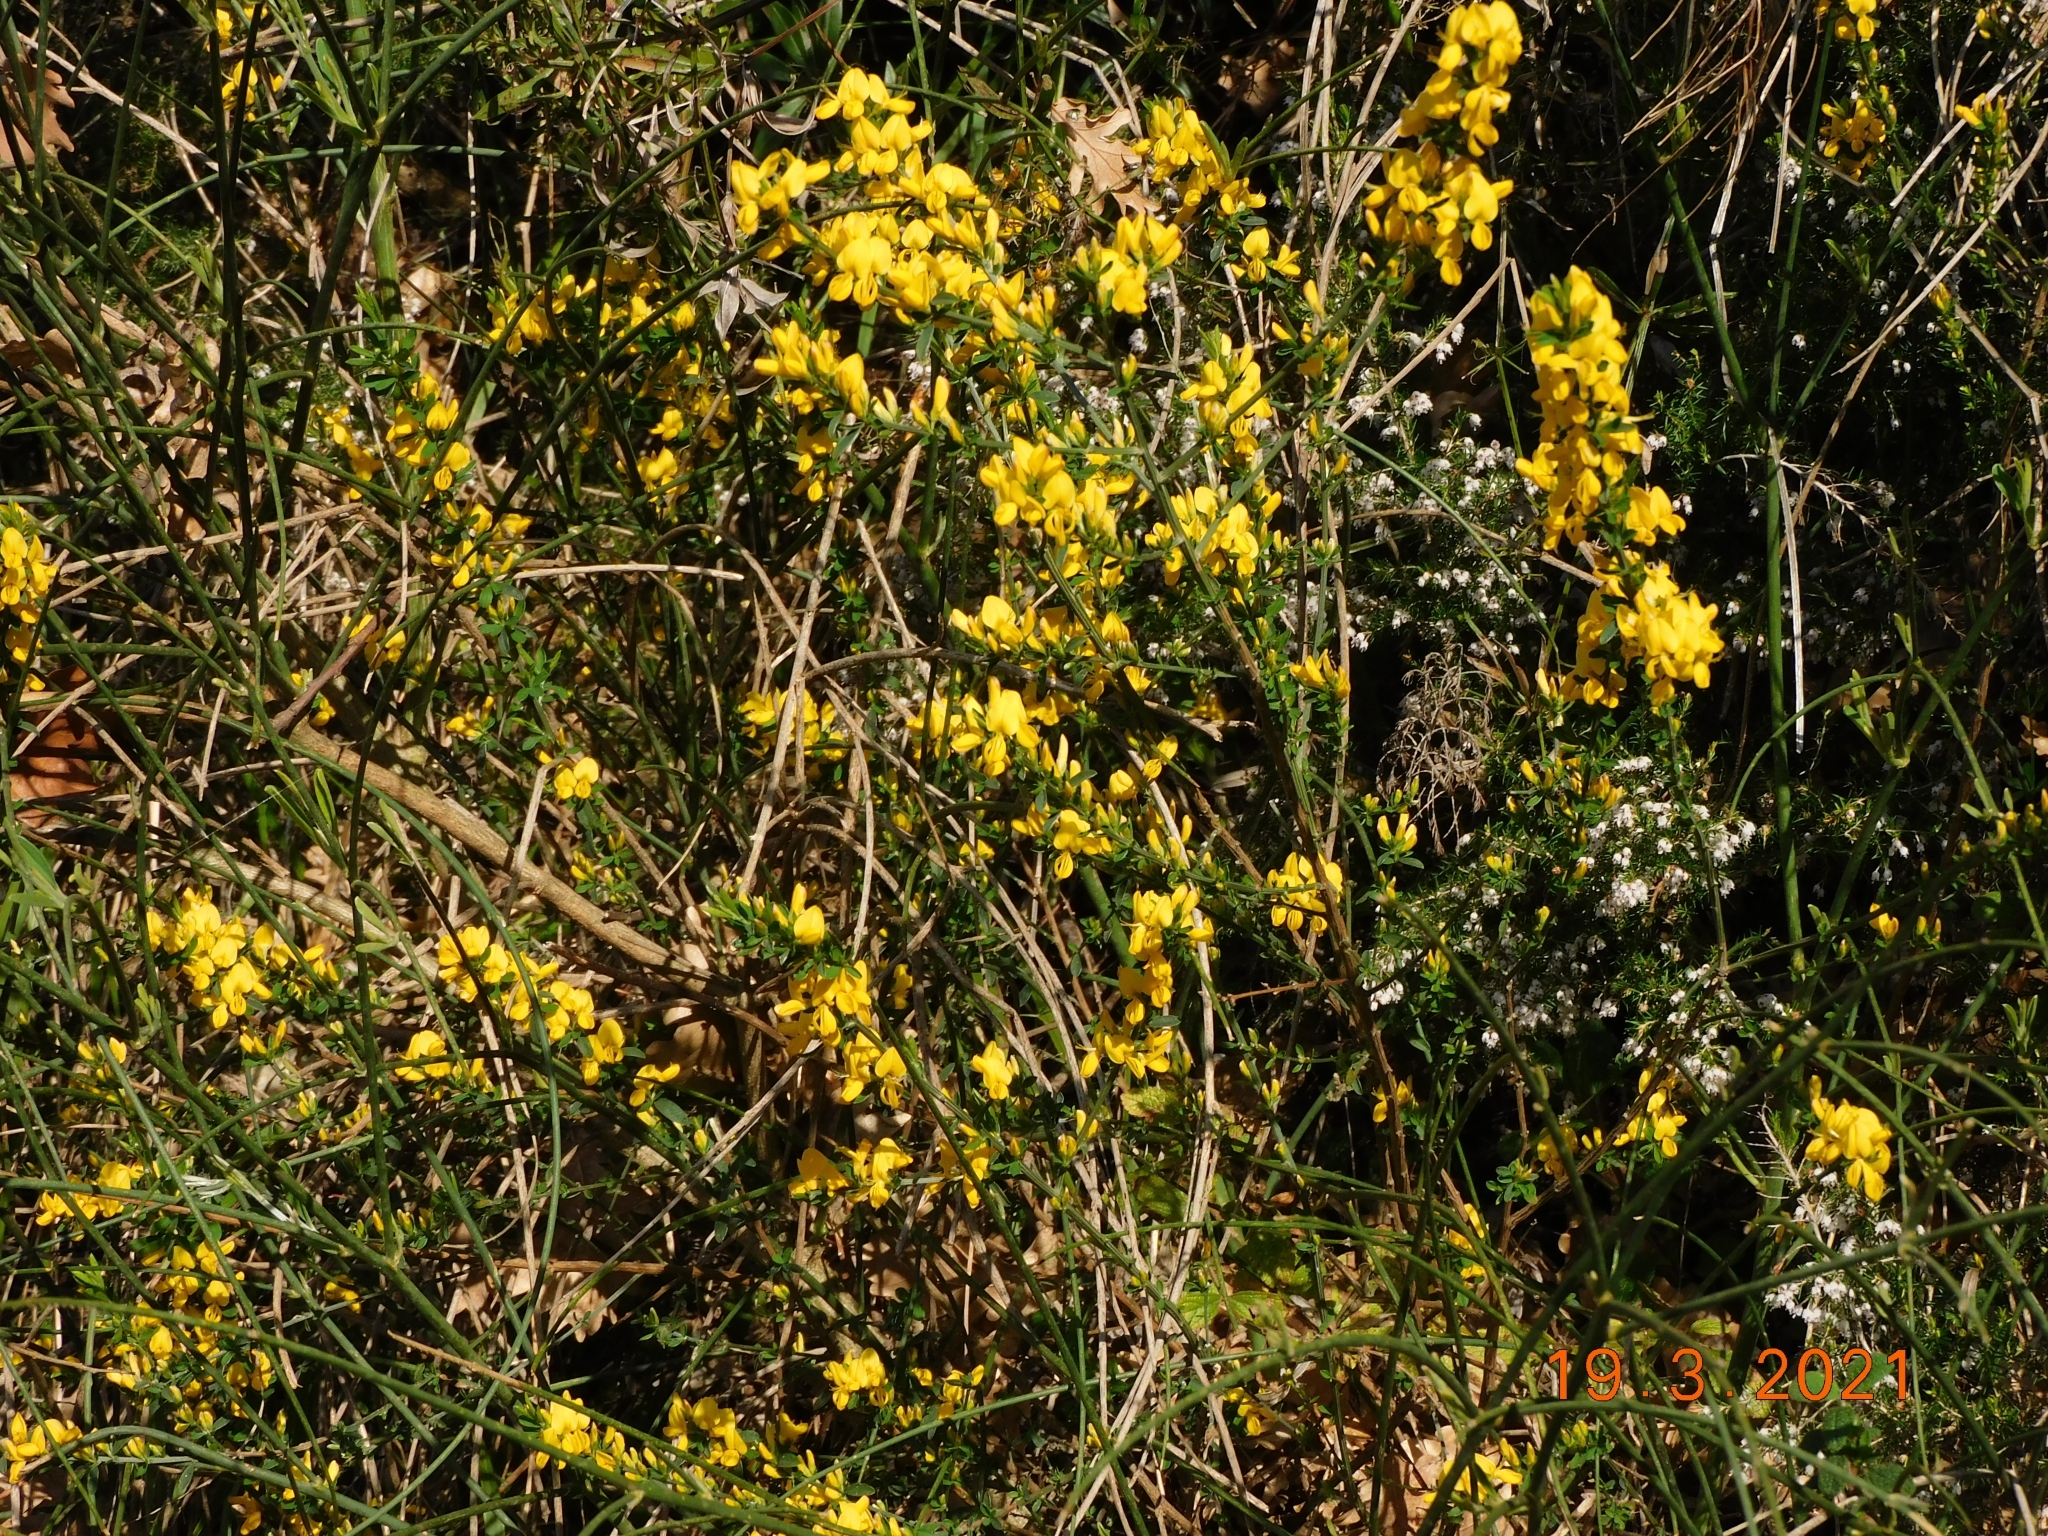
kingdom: Plantae
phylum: Tracheophyta
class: Magnoliopsida
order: Fabales
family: Fabaceae
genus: Cytisus
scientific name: Cytisus scoparius
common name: Scotch broom
